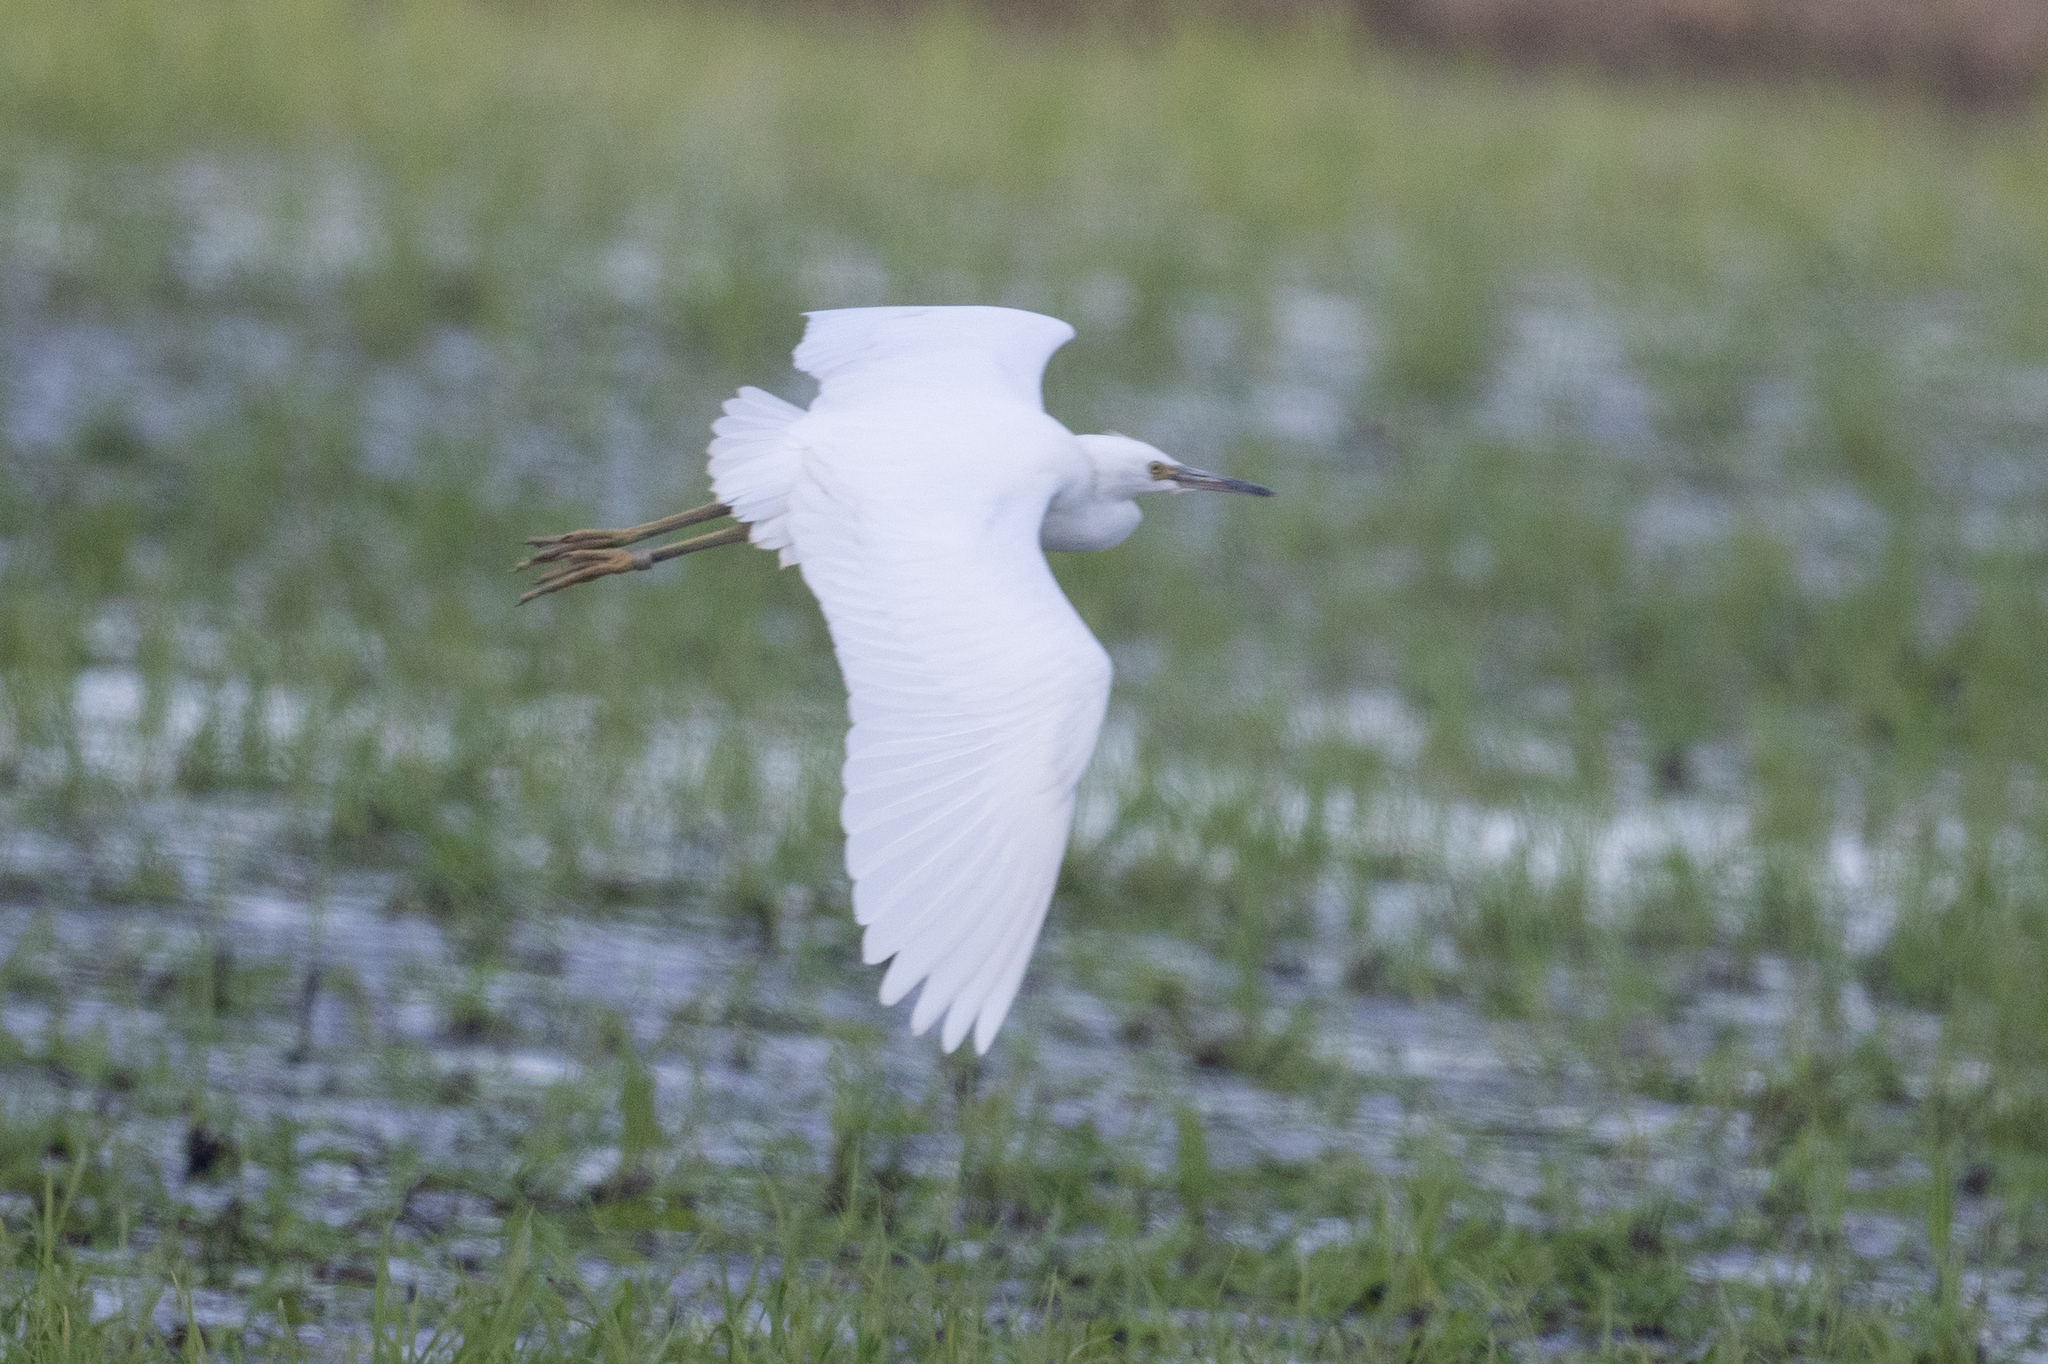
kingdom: Animalia
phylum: Chordata
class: Aves
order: Pelecaniformes
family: Ardeidae
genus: Egretta
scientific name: Egretta thula
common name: Snowy egret
